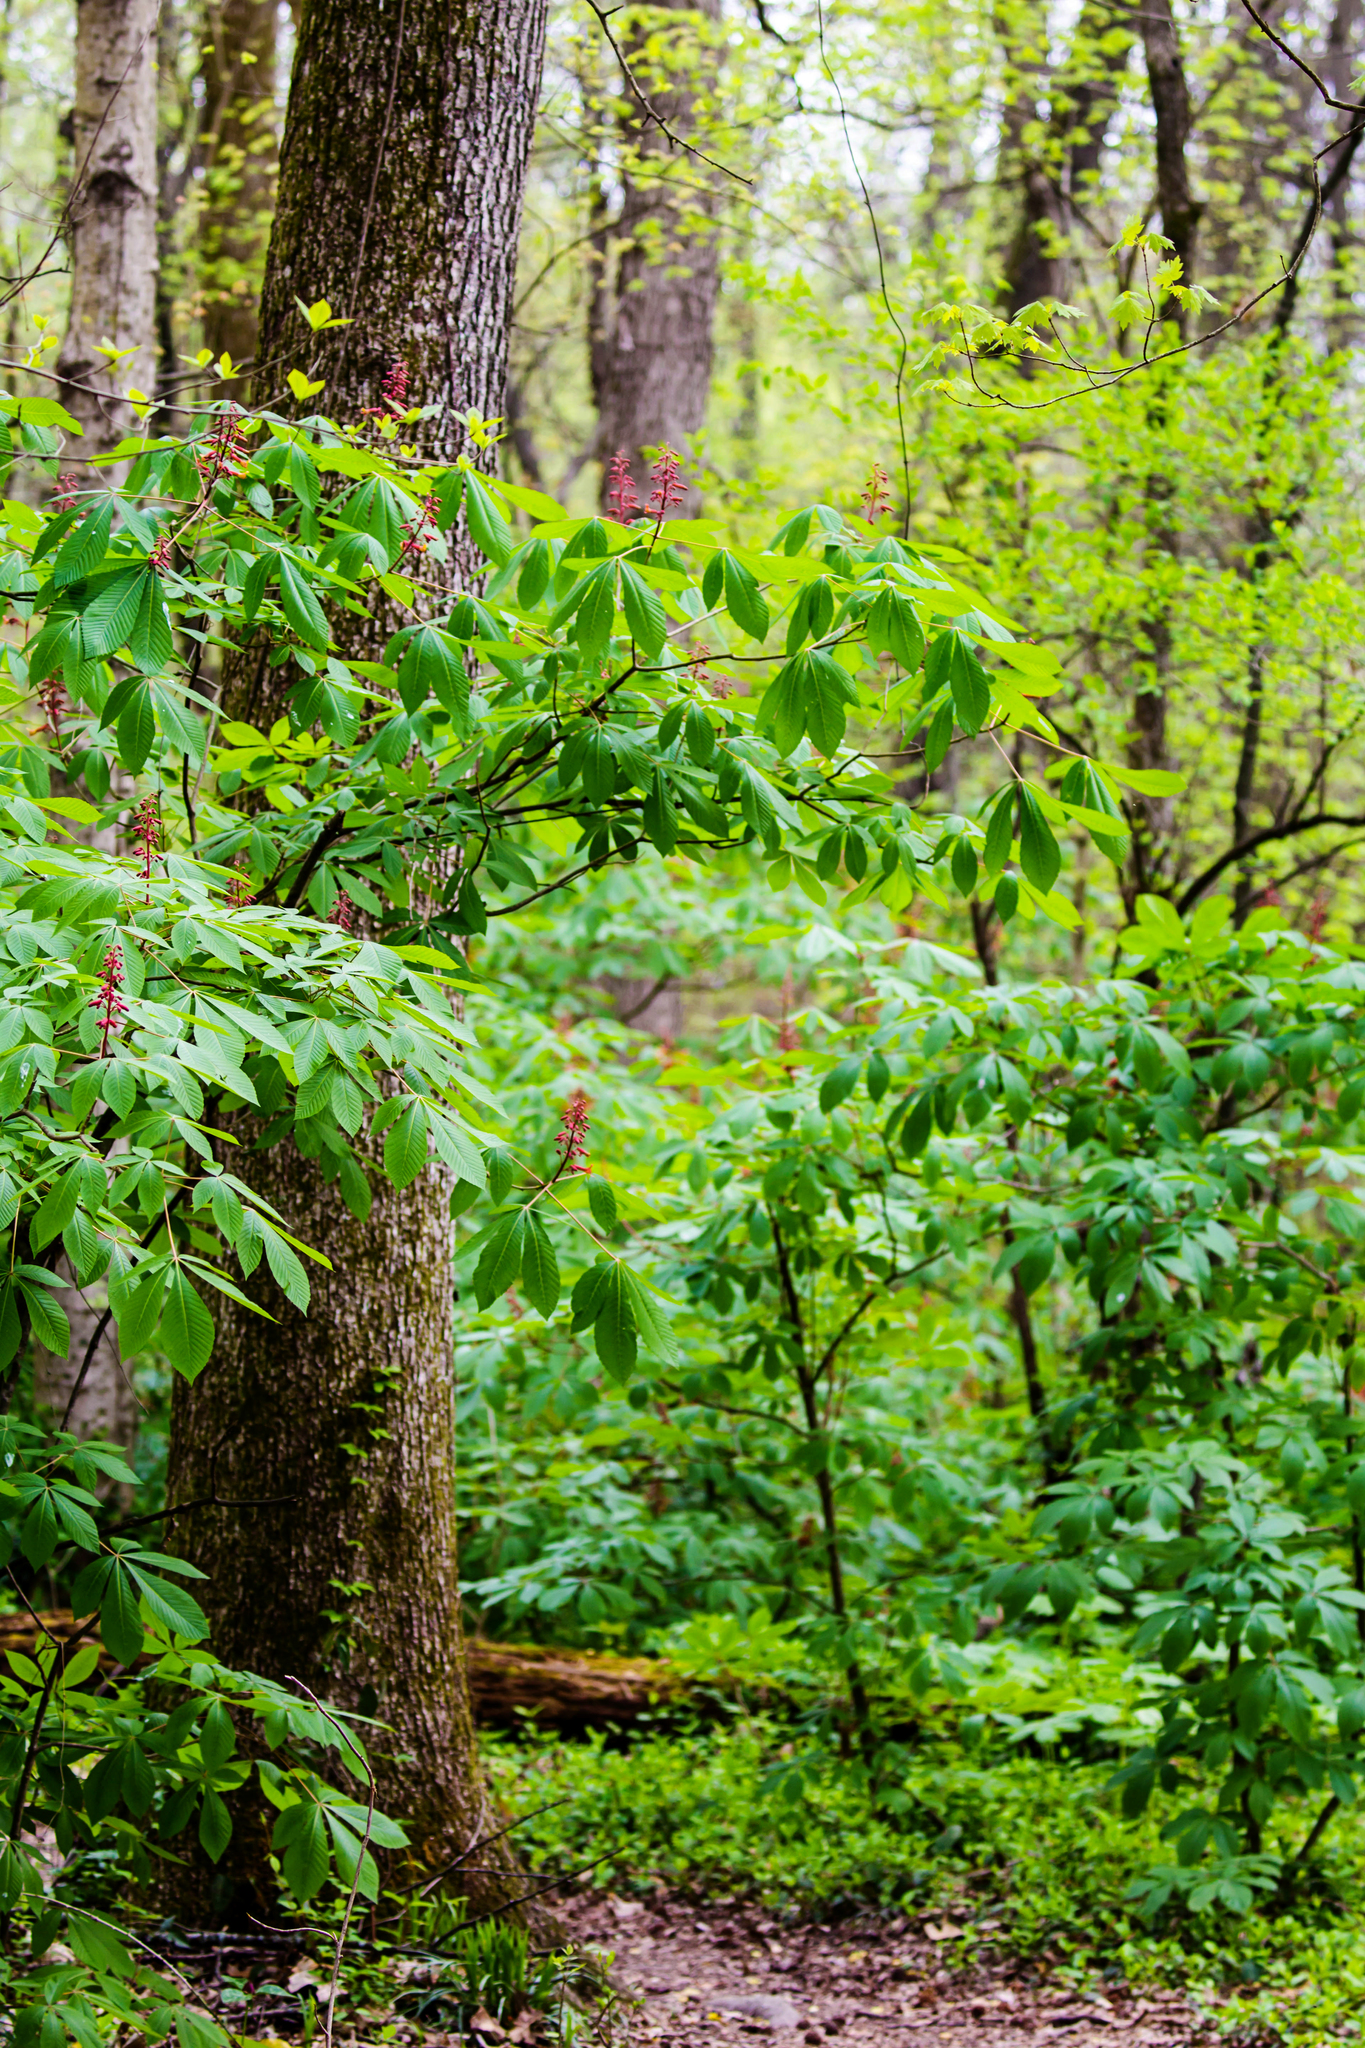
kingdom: Plantae
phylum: Tracheophyta
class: Magnoliopsida
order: Sapindales
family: Sapindaceae
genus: Aesculus
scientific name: Aesculus pavia
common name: Red buckeye
